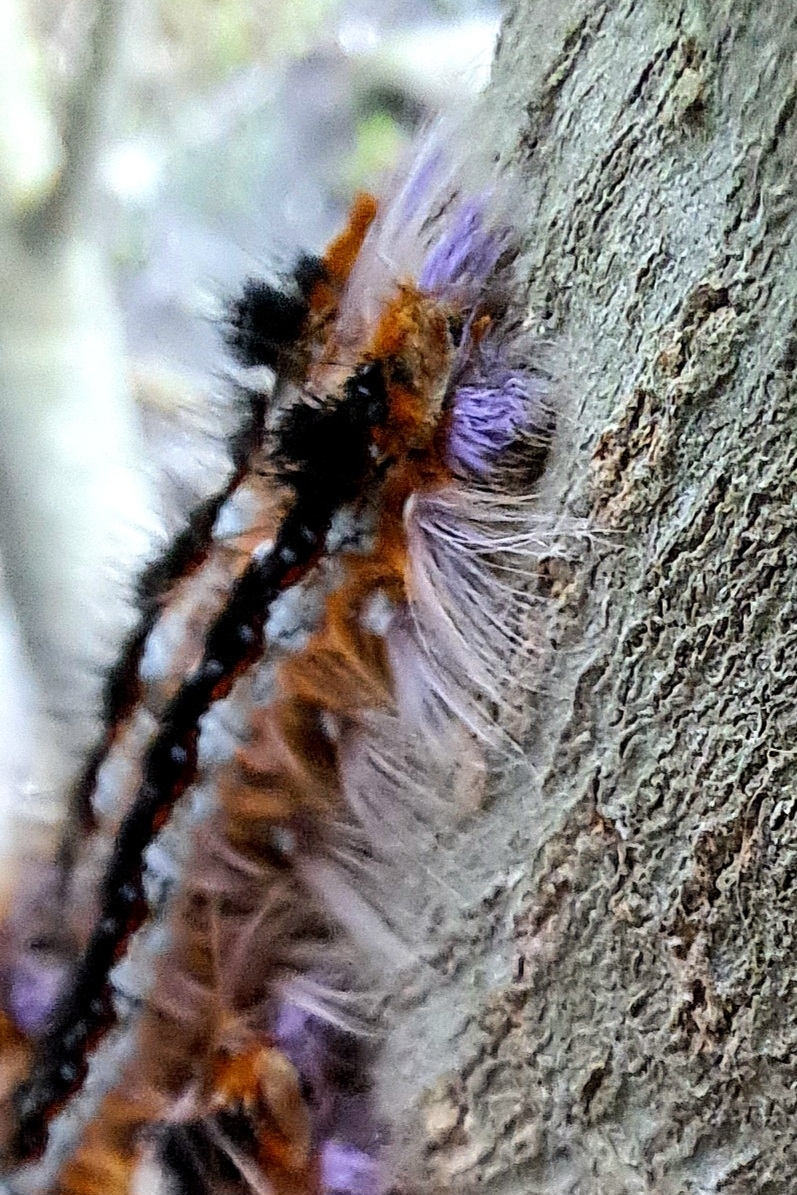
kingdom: Animalia
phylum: Arthropoda
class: Insecta
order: Lepidoptera
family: Lasiocampidae
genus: Eutricha
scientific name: Eutricha capensis
